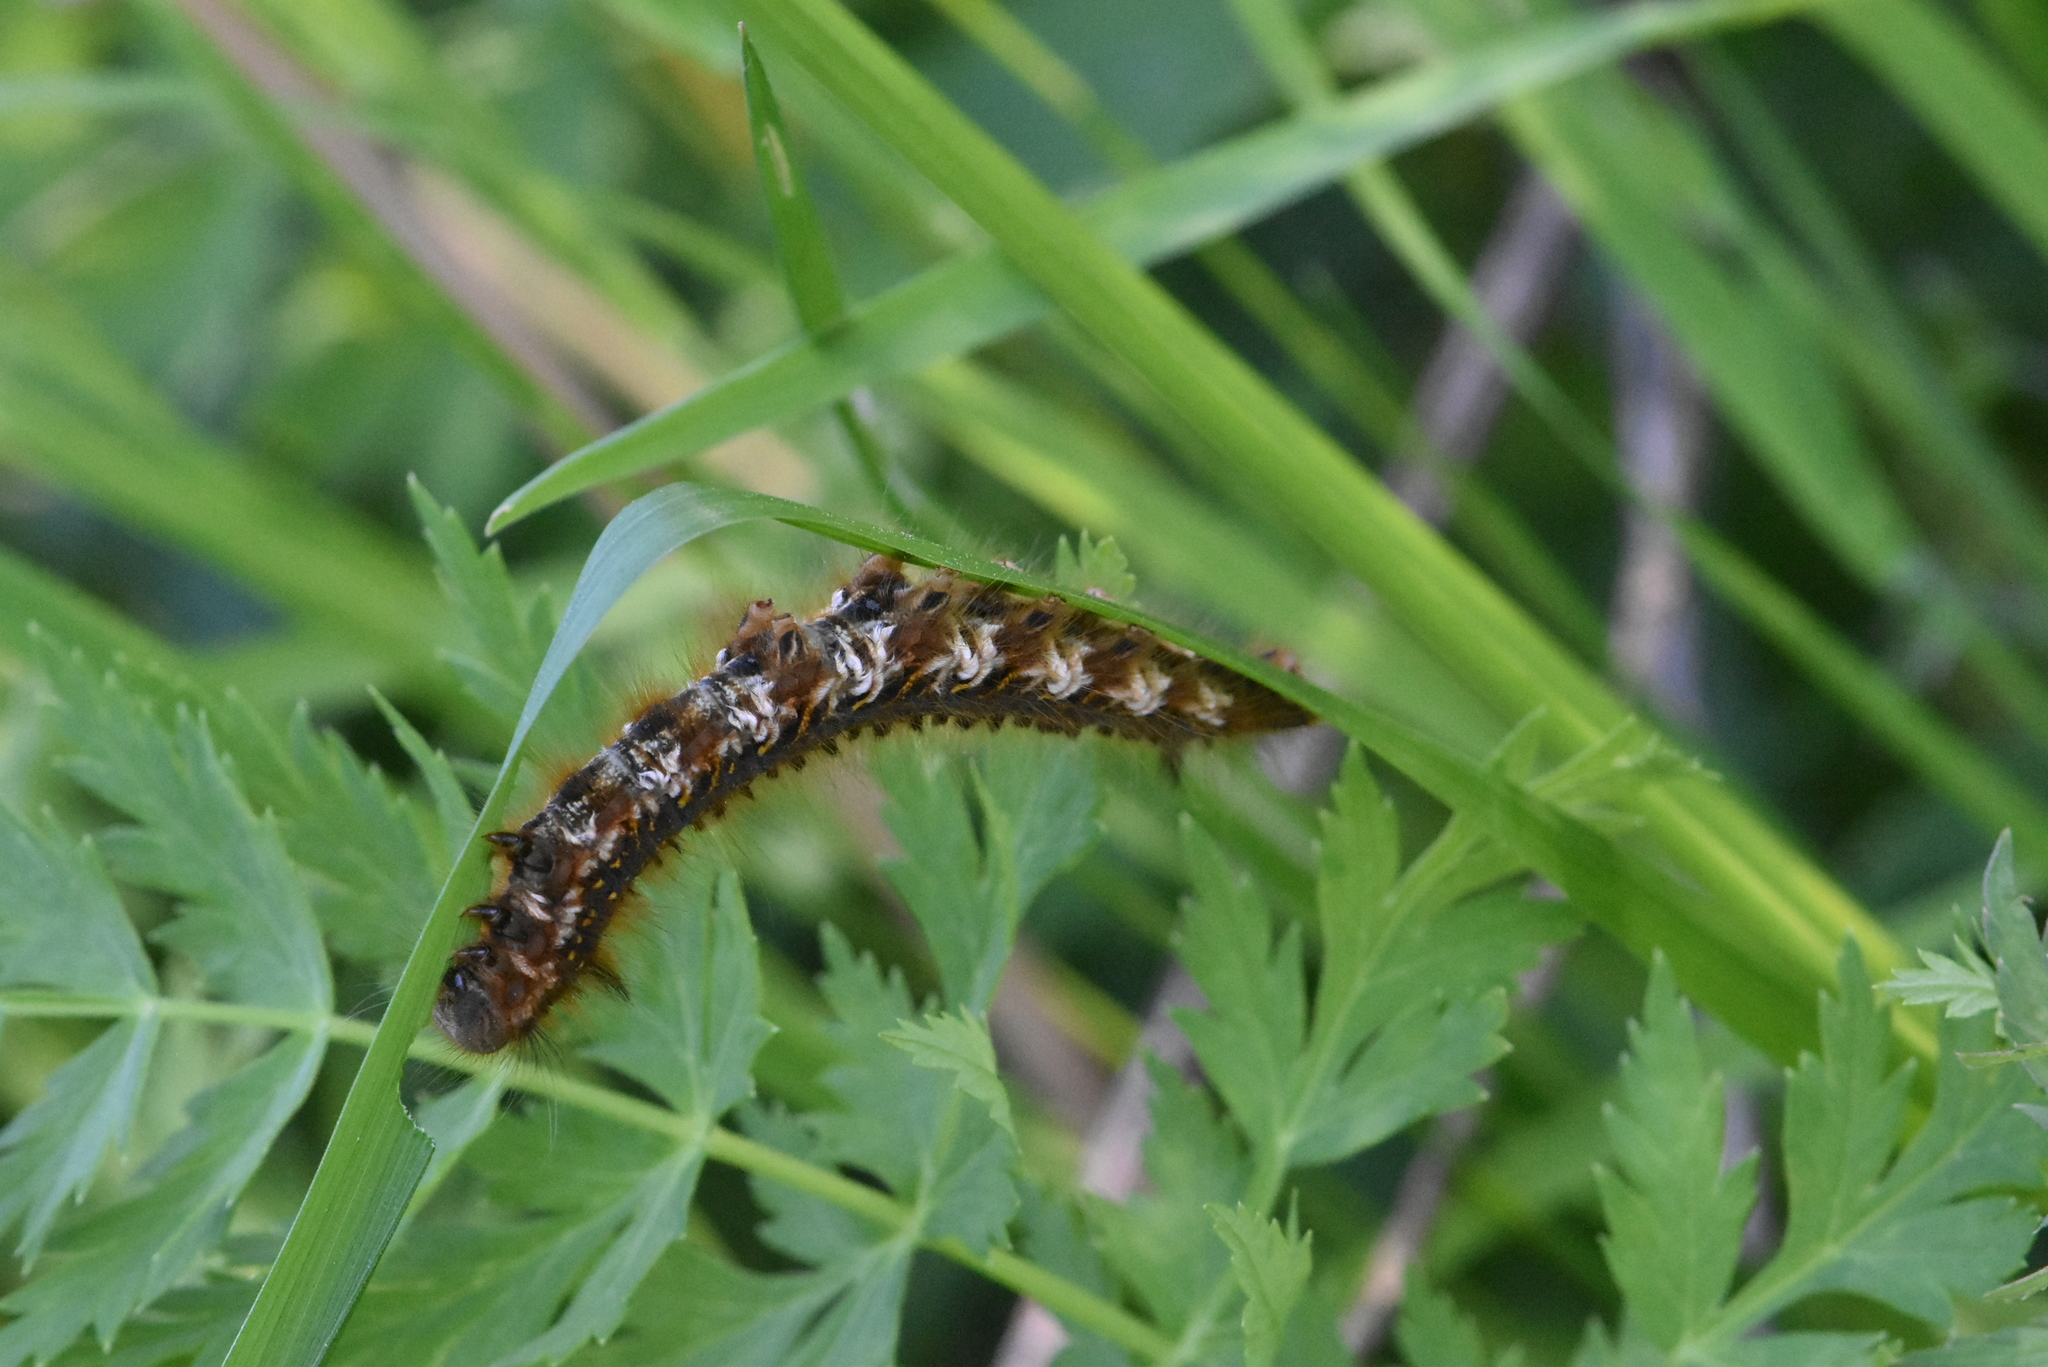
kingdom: Animalia
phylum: Arthropoda
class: Insecta
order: Lepidoptera
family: Lasiocampidae
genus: Euthrix
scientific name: Euthrix potatoria
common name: Drinker
